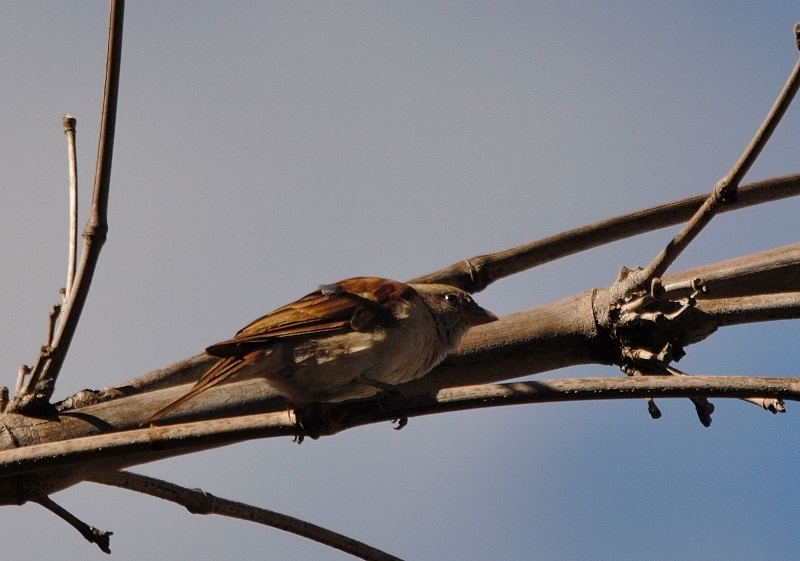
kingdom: Animalia
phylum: Chordata
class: Aves
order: Passeriformes
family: Passeridae
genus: Passer
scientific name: Passer diffusus
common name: Southern grey-headed sparrow
